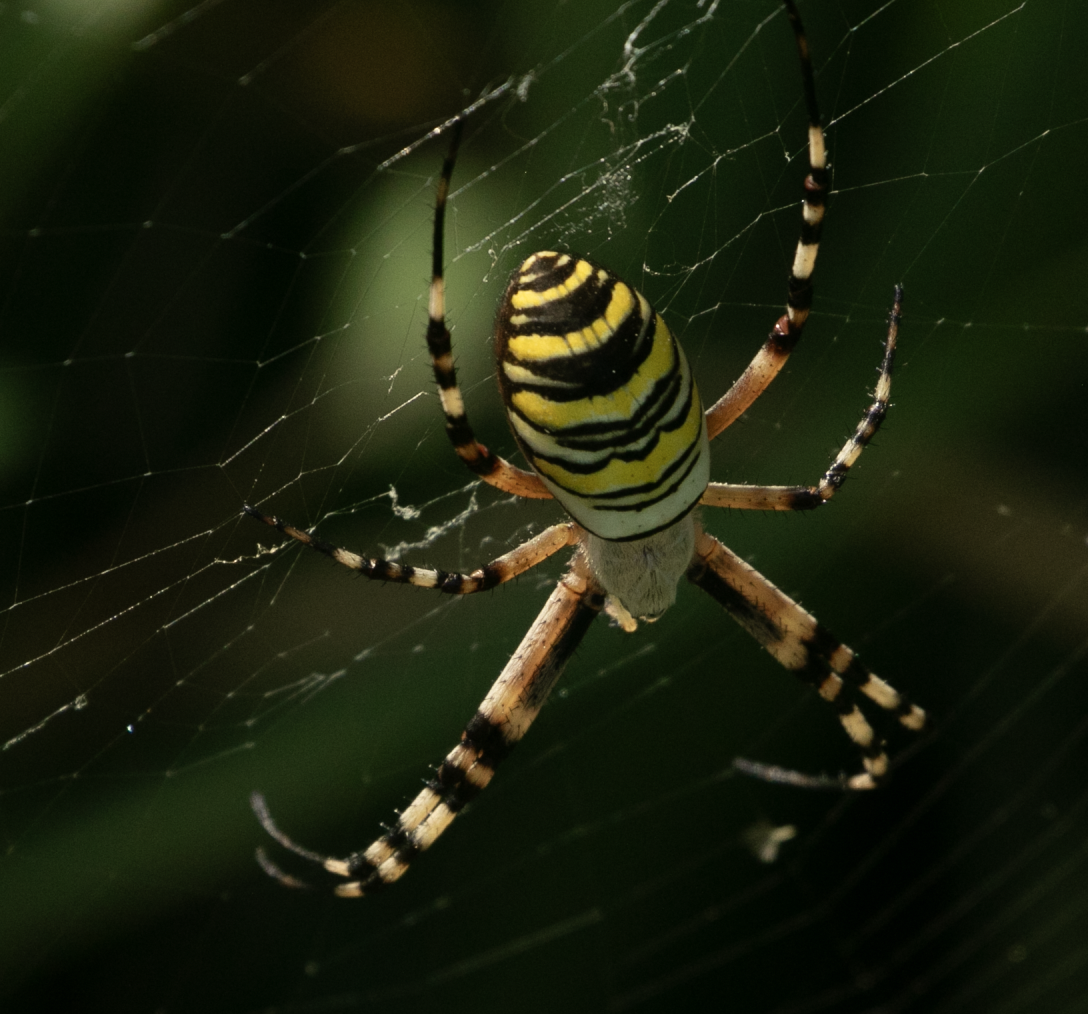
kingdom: Animalia
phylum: Arthropoda
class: Arachnida
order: Araneae
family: Araneidae
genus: Argiope
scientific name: Argiope bruennichi
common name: Wasp spider
